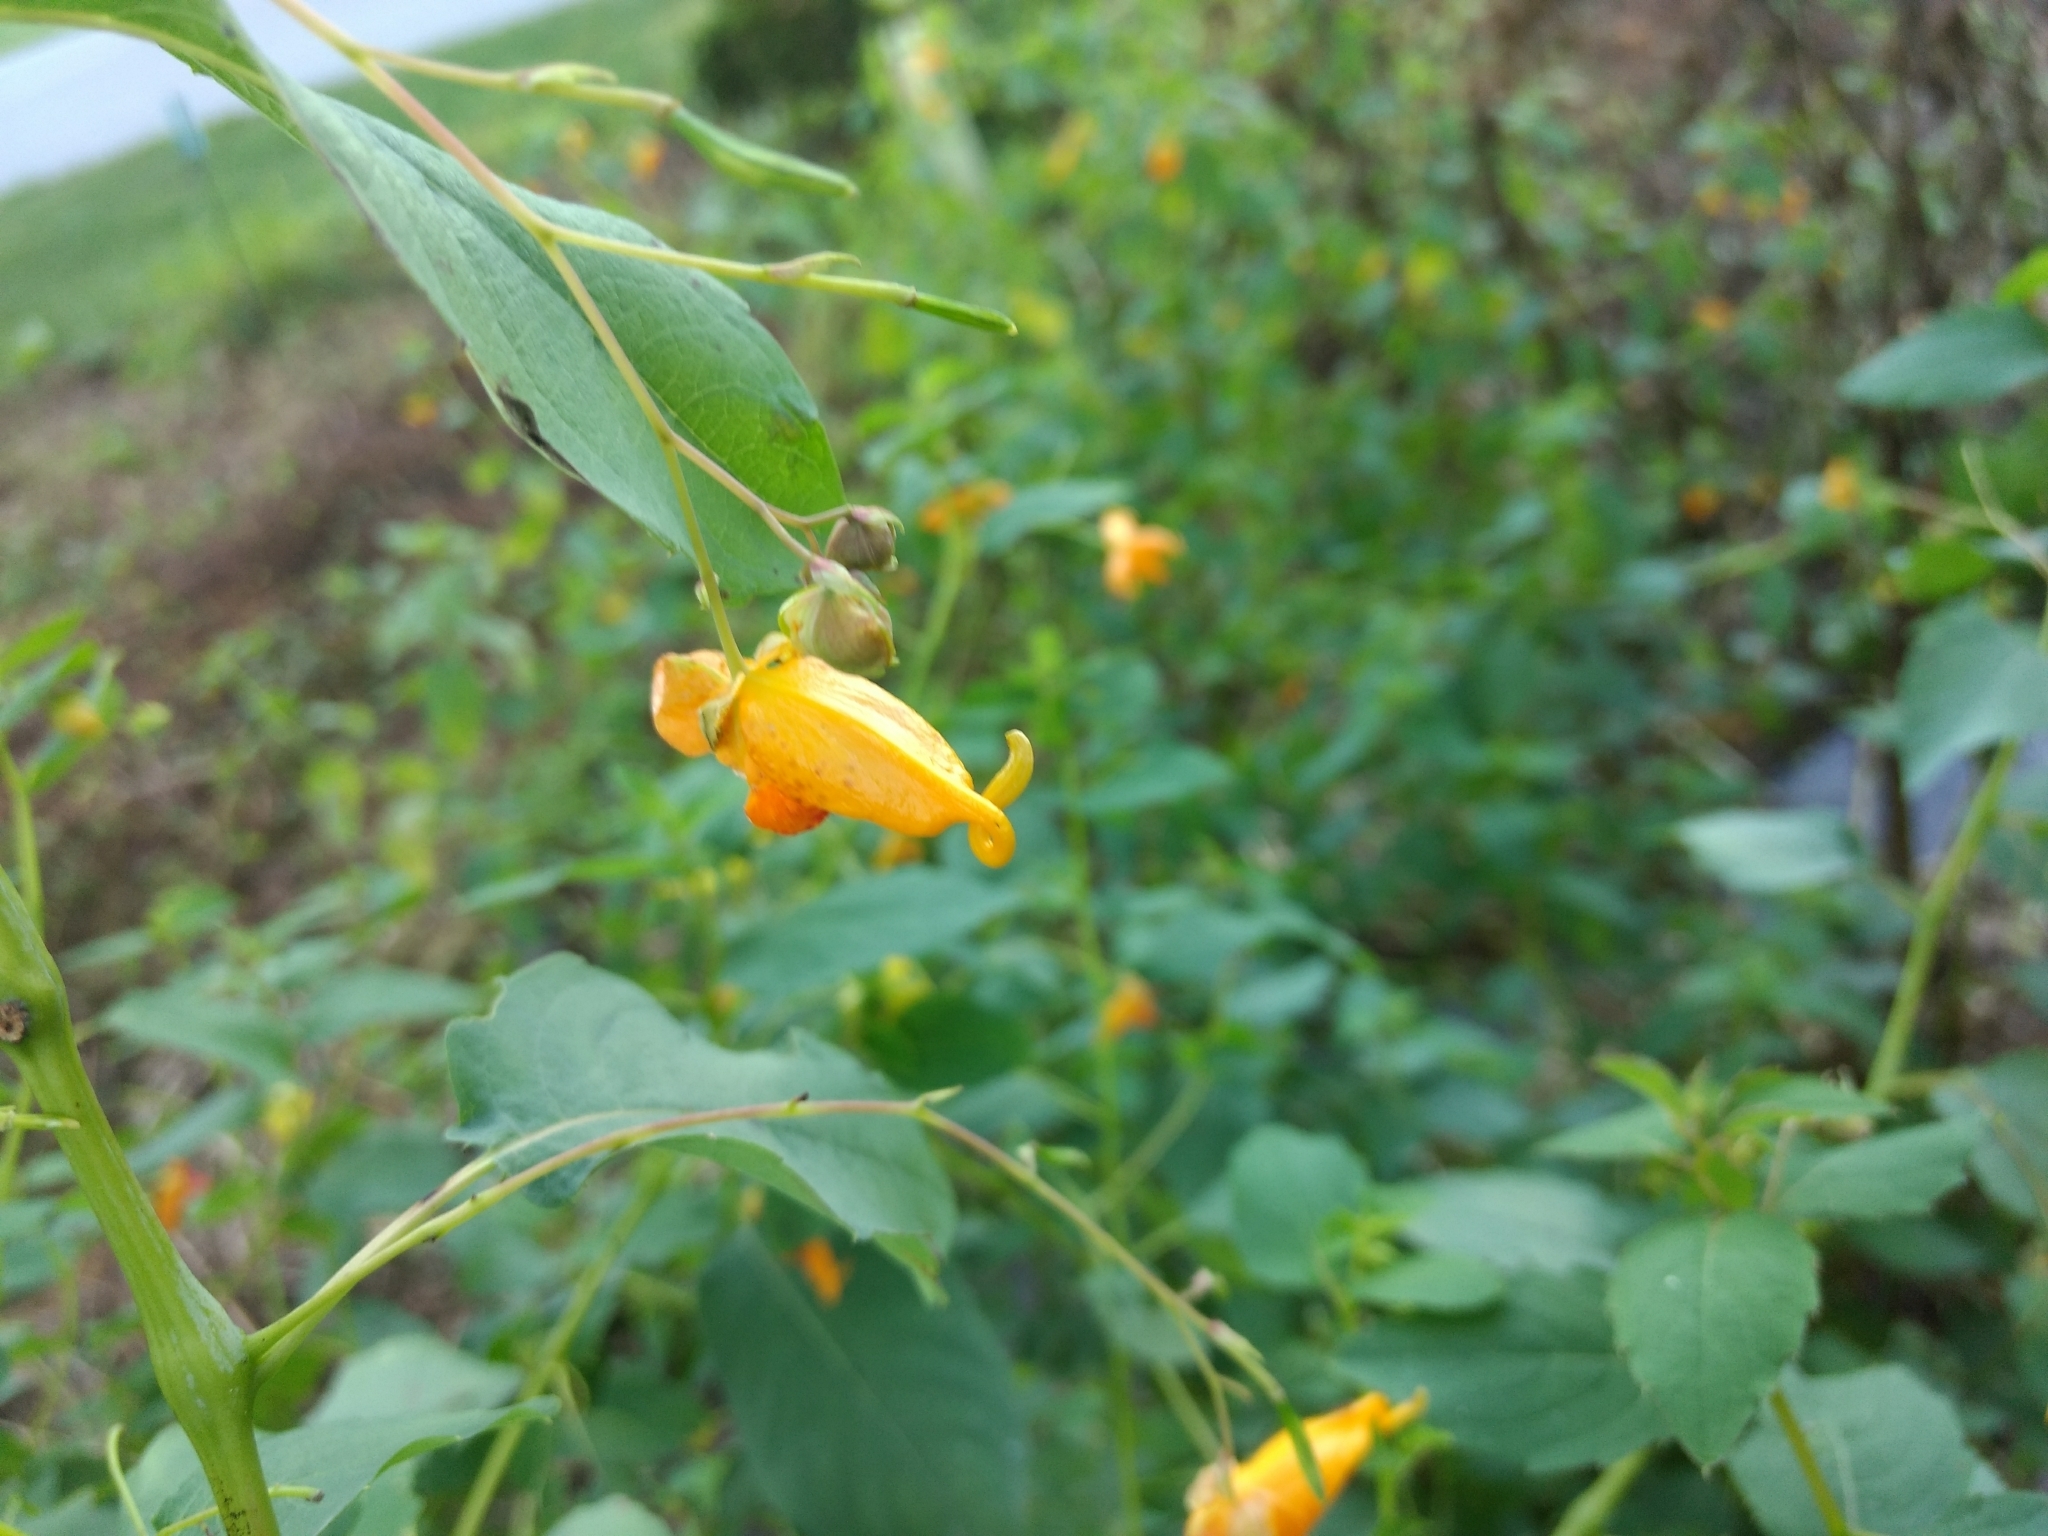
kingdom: Plantae
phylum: Tracheophyta
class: Magnoliopsida
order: Ericales
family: Balsaminaceae
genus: Impatiens
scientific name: Impatiens capensis
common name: Orange balsam
